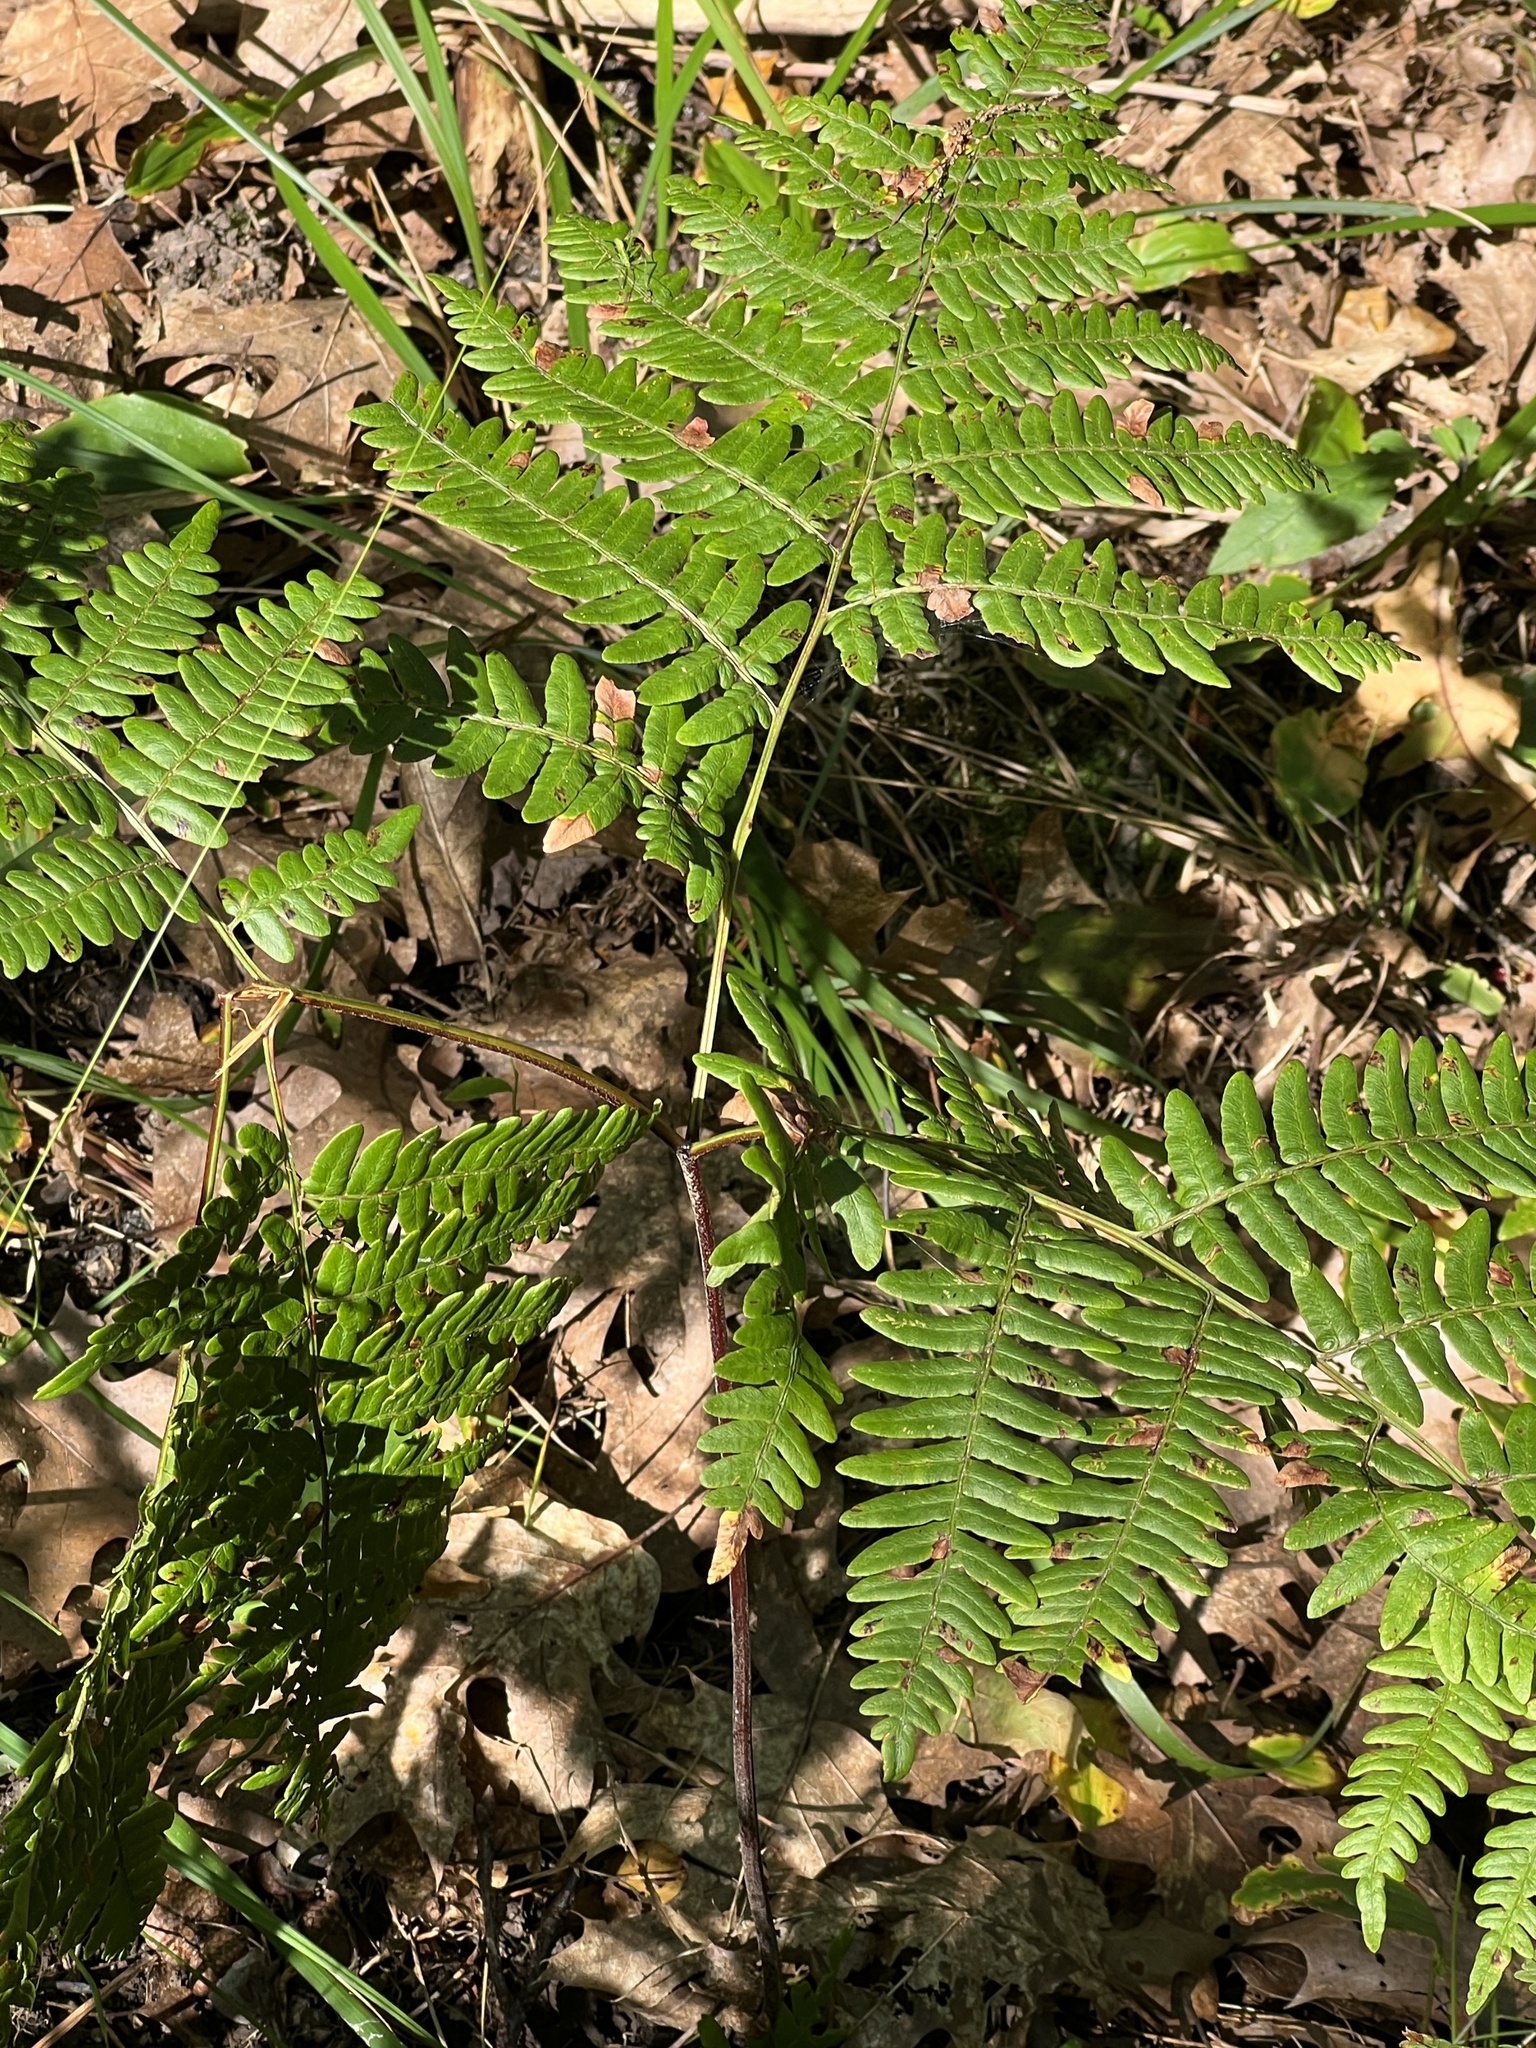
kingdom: Plantae
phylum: Tracheophyta
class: Polypodiopsida
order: Polypodiales
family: Dennstaedtiaceae
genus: Pteridium
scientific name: Pteridium aquilinum
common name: Bracken
